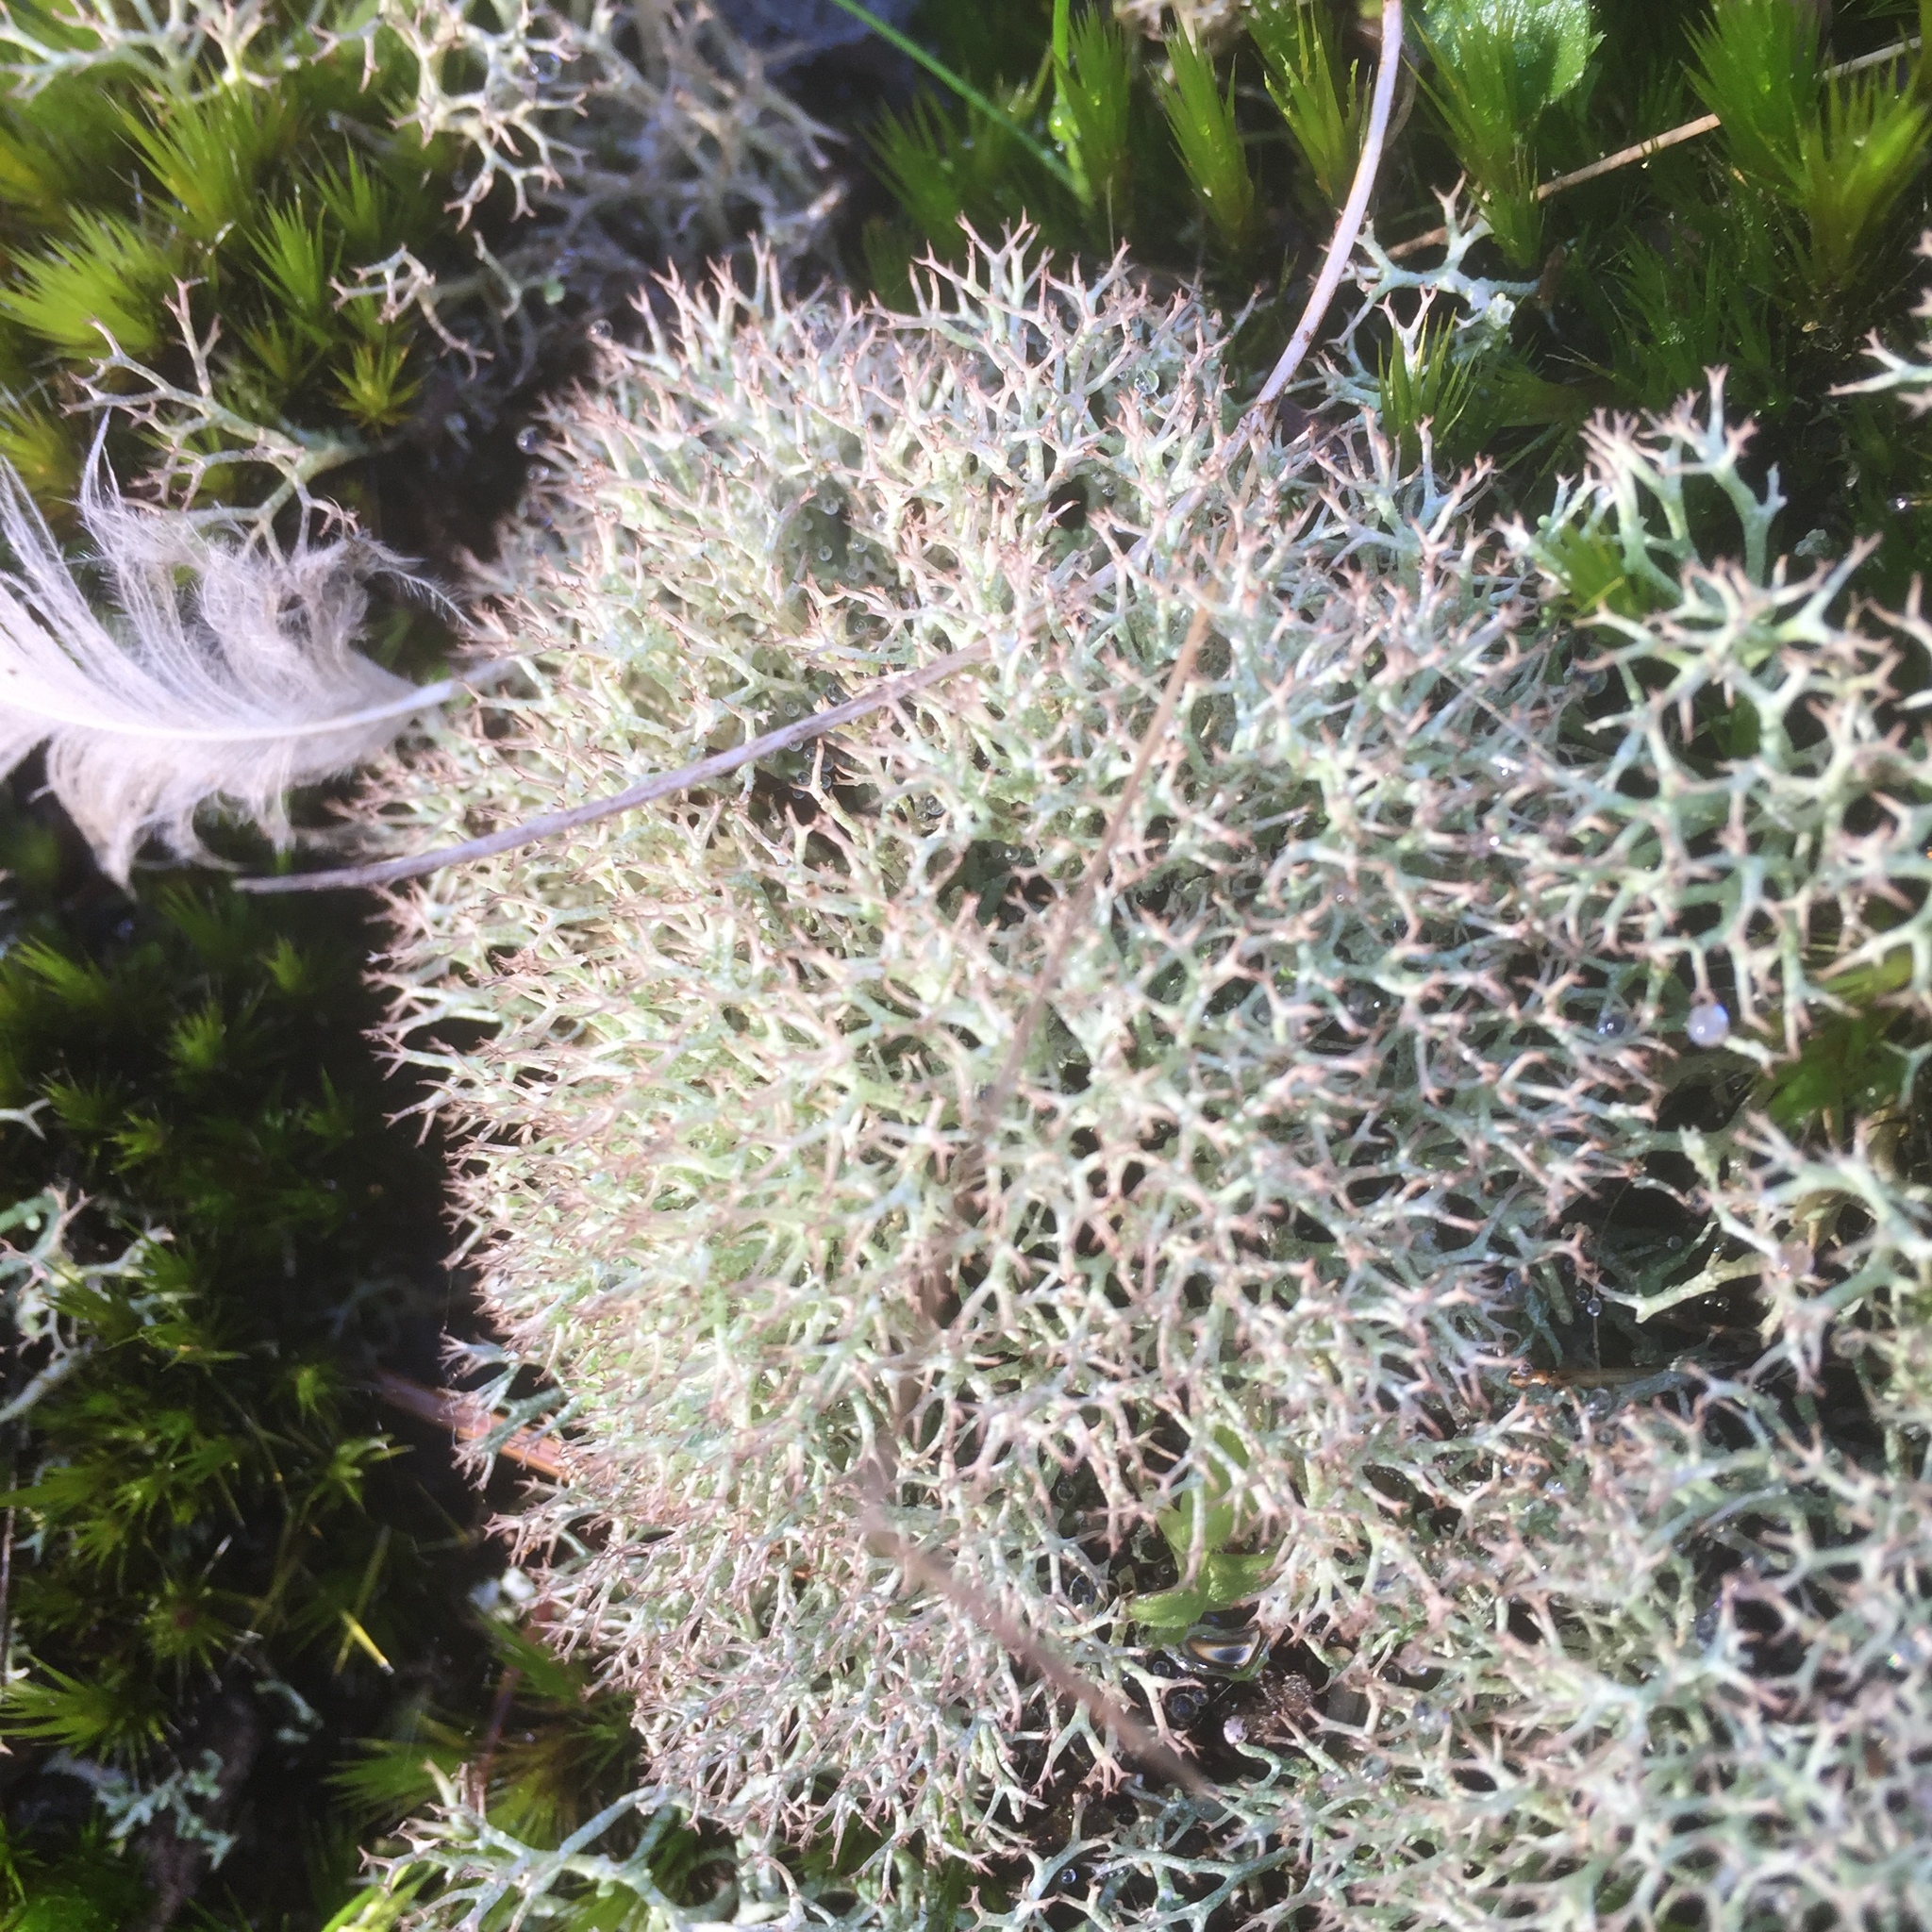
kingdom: Fungi
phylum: Ascomycota
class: Lecanoromycetes
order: Lecanorales
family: Cladoniaceae
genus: Cladonia
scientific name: Cladonia rangiformis
